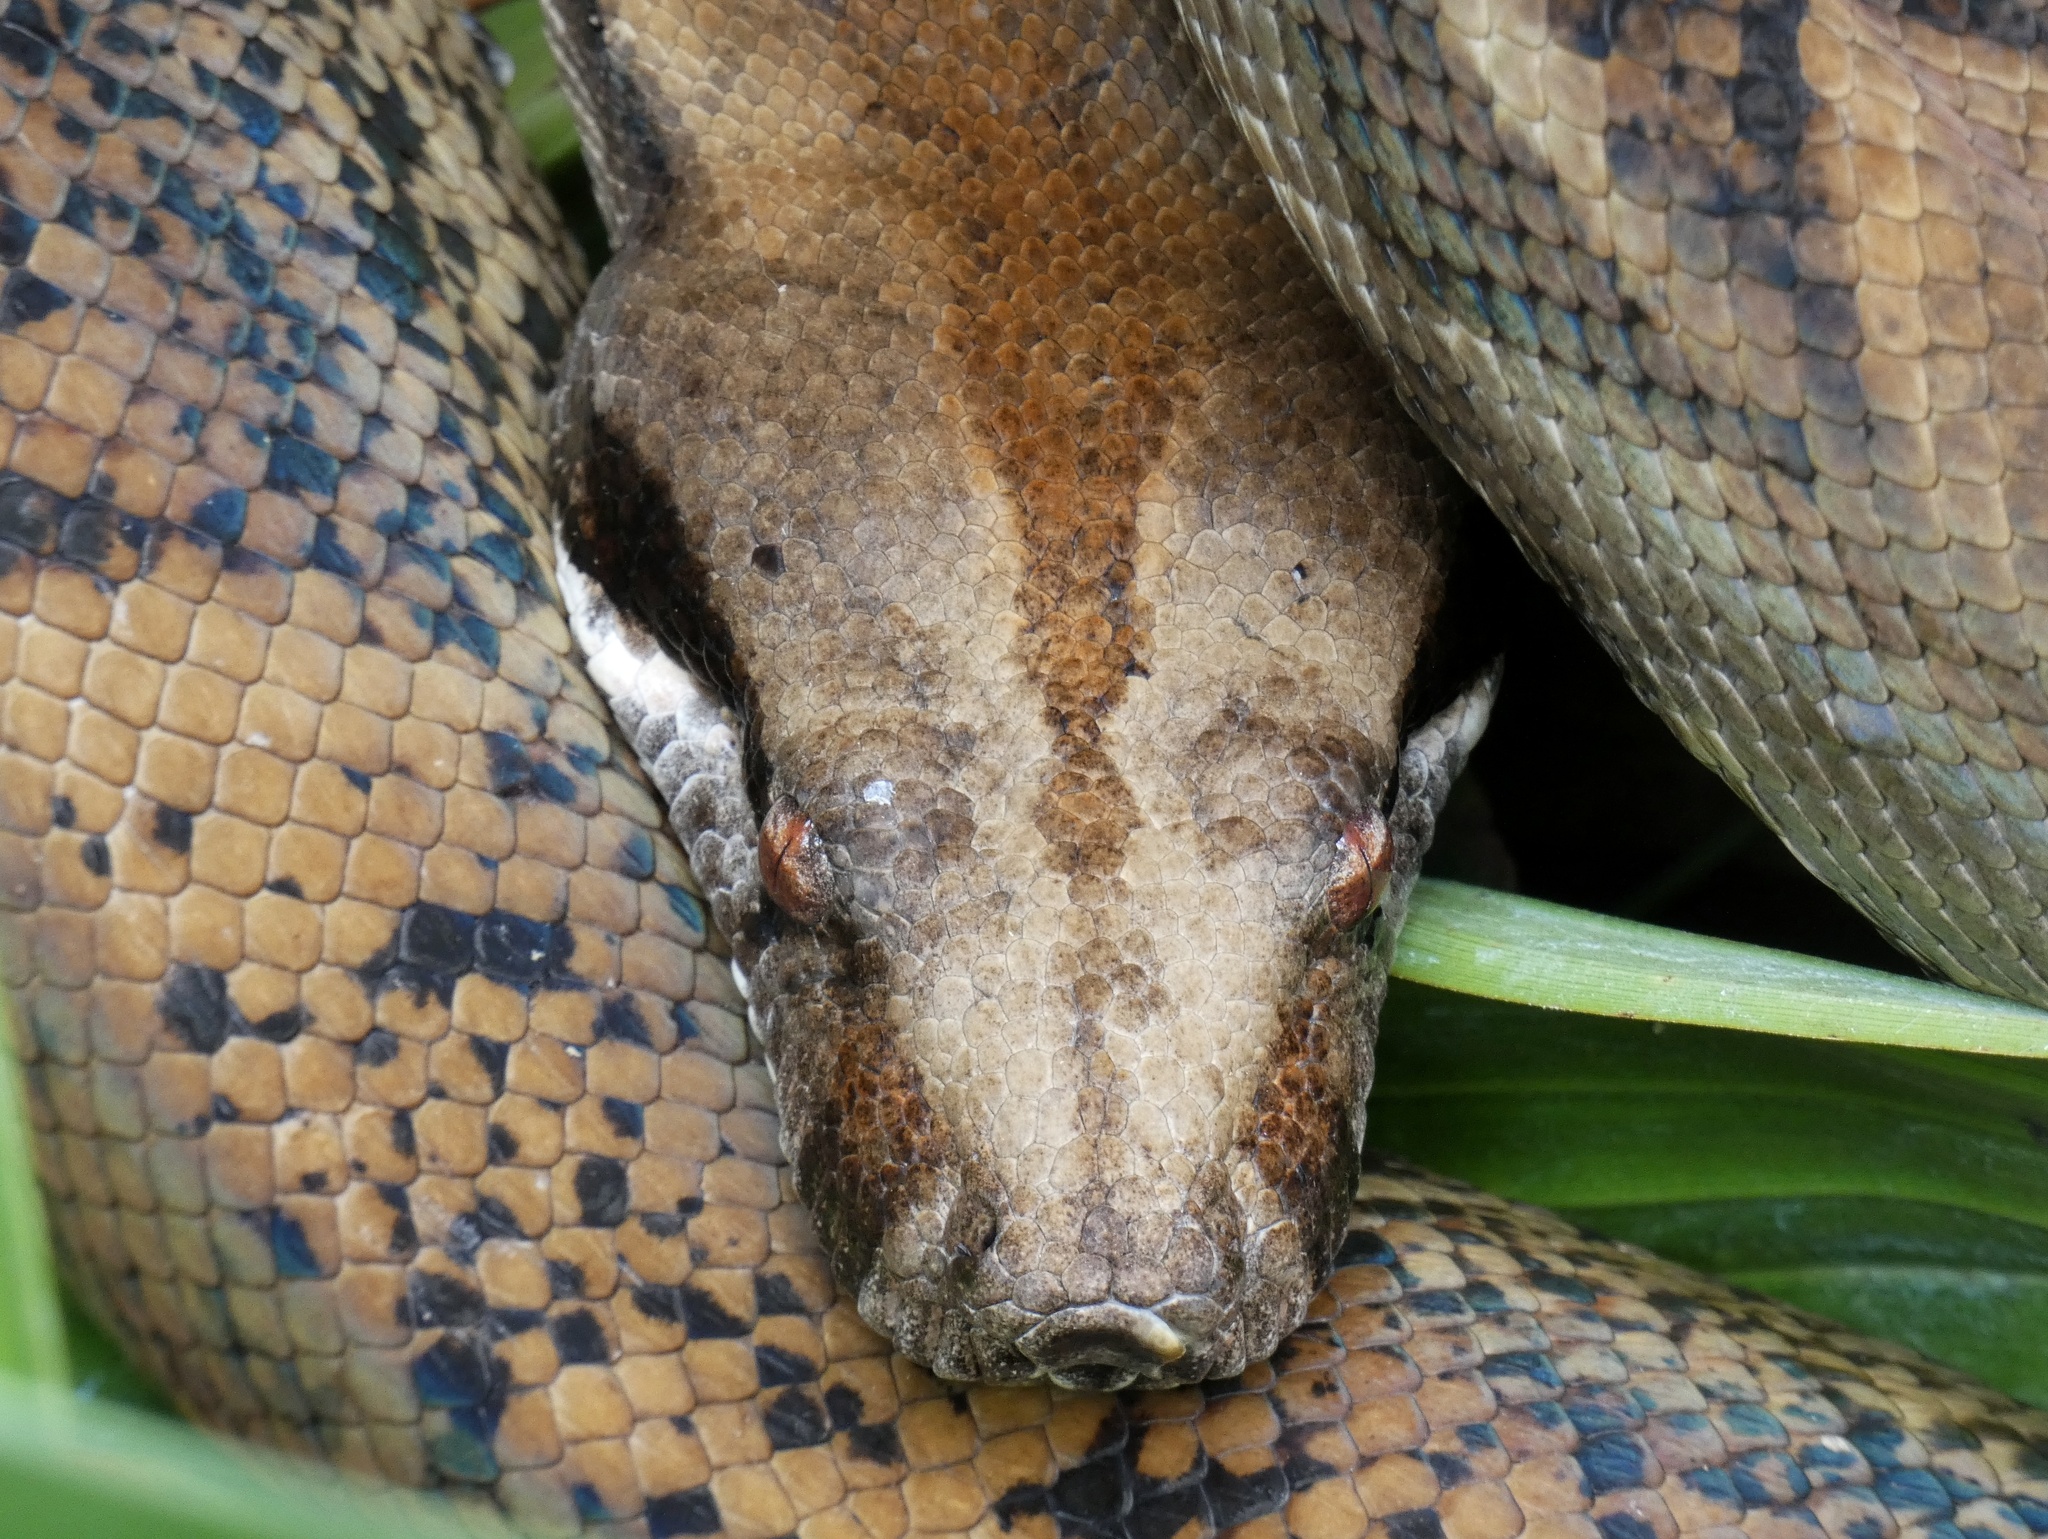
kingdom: Animalia
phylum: Chordata
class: Squamata
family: Boidae
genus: Boa
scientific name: Boa imperator
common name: Central american boa
